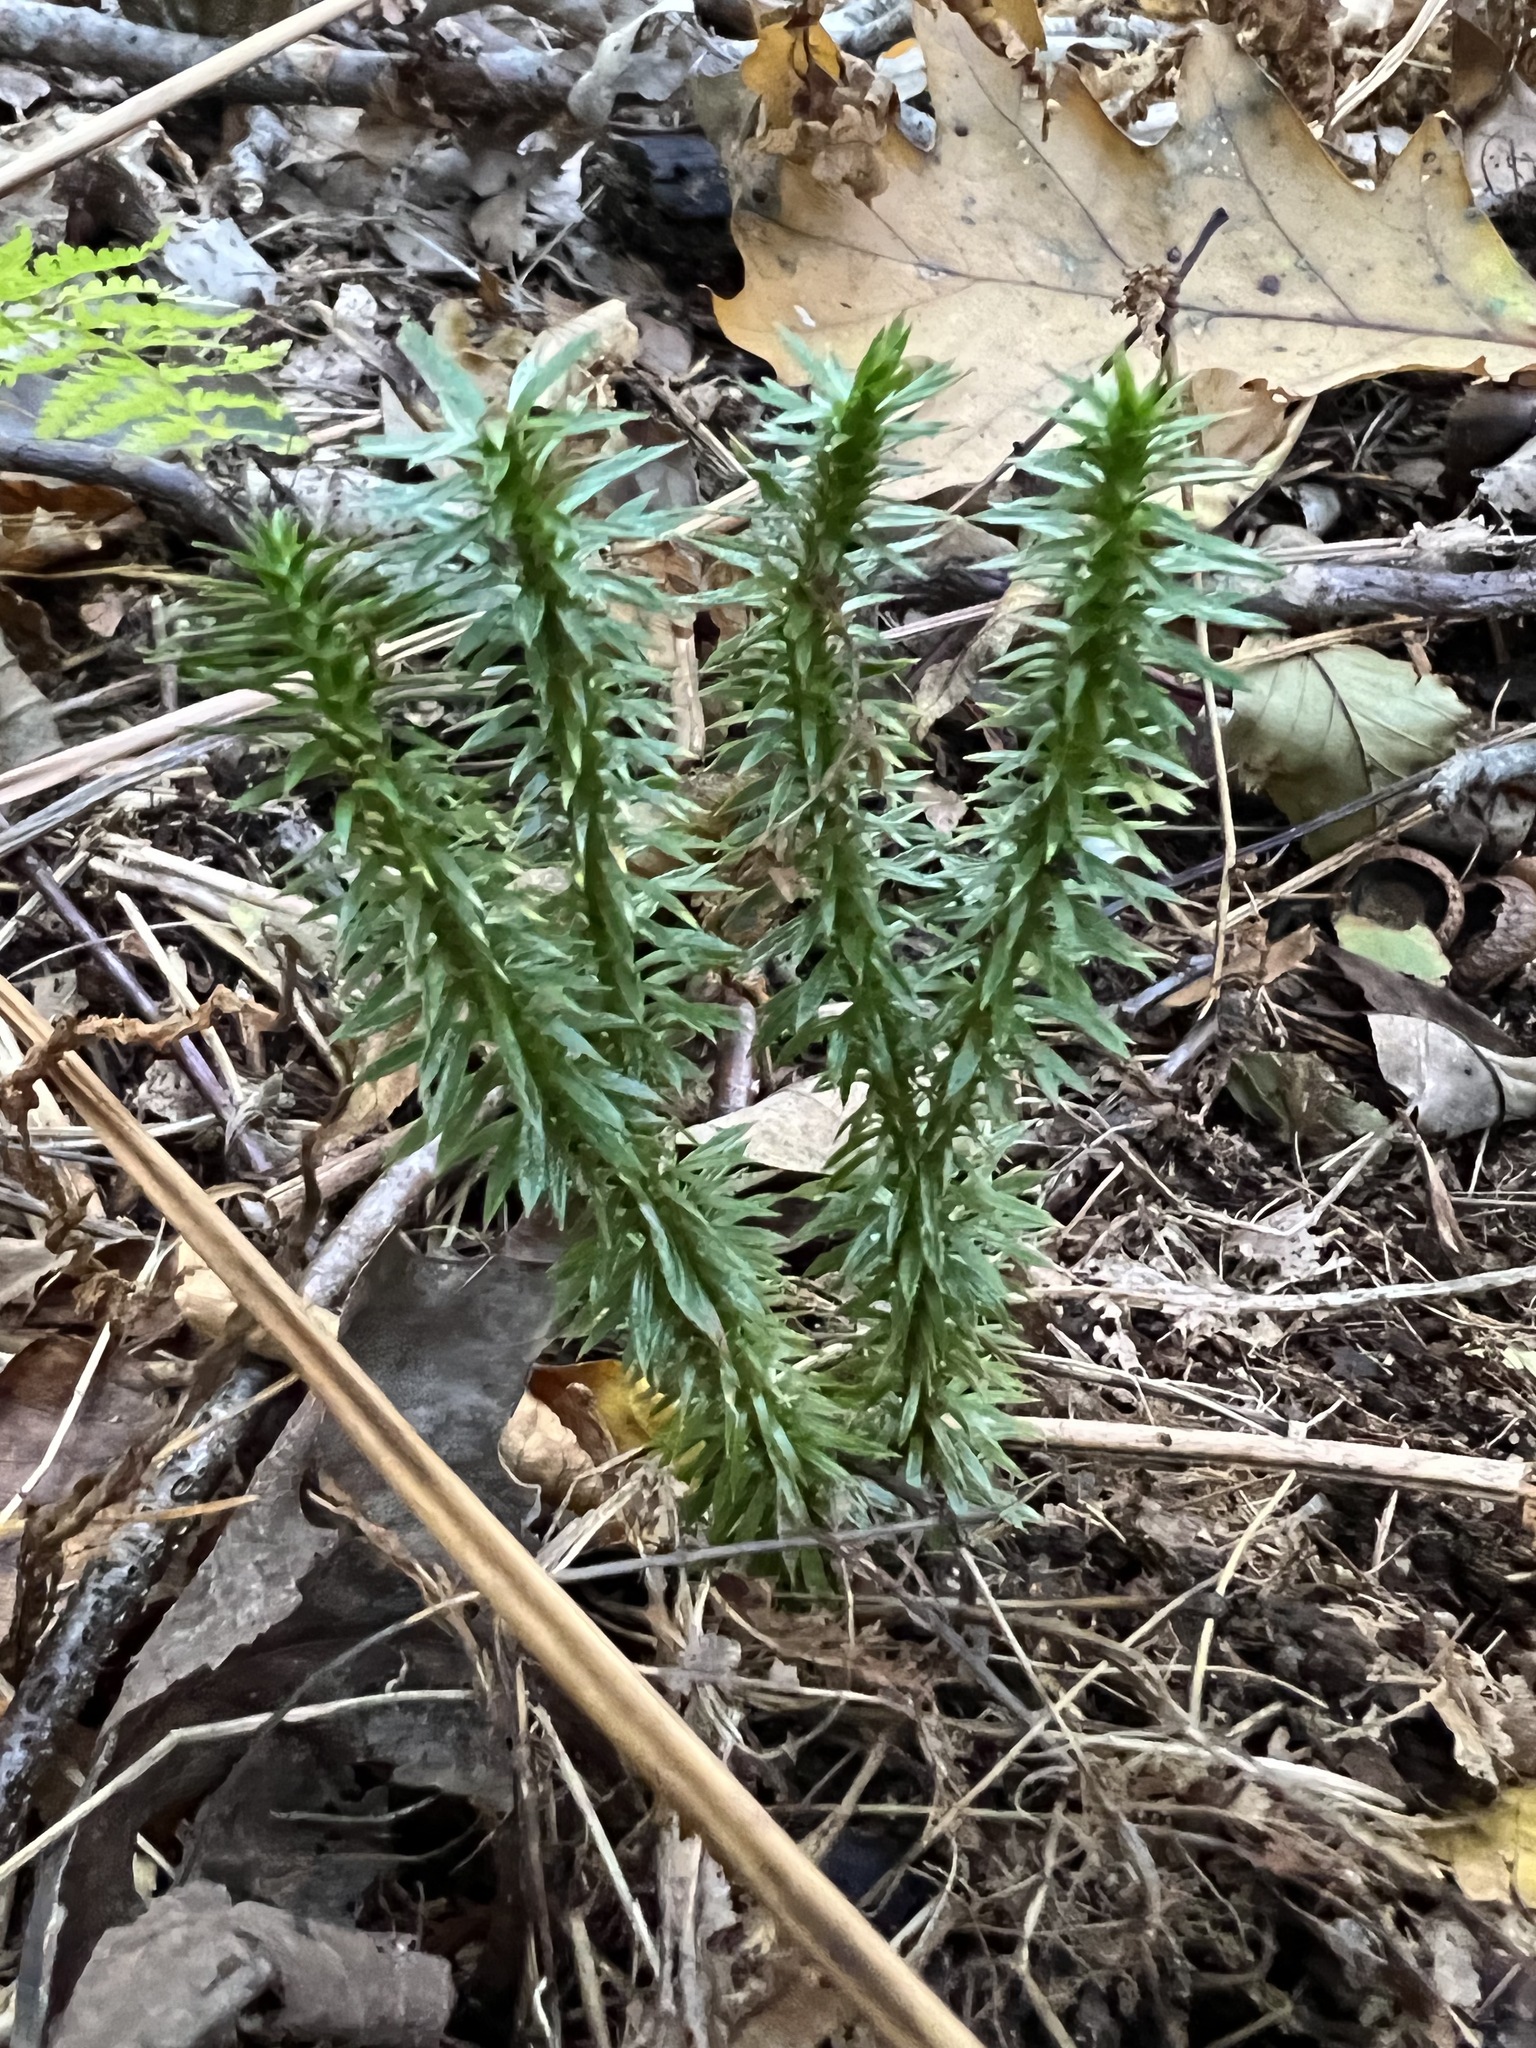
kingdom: Plantae
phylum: Tracheophyta
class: Lycopodiopsida
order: Lycopodiales
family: Lycopodiaceae
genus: Huperzia
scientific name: Huperzia lucidula
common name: Shining clubmoss
